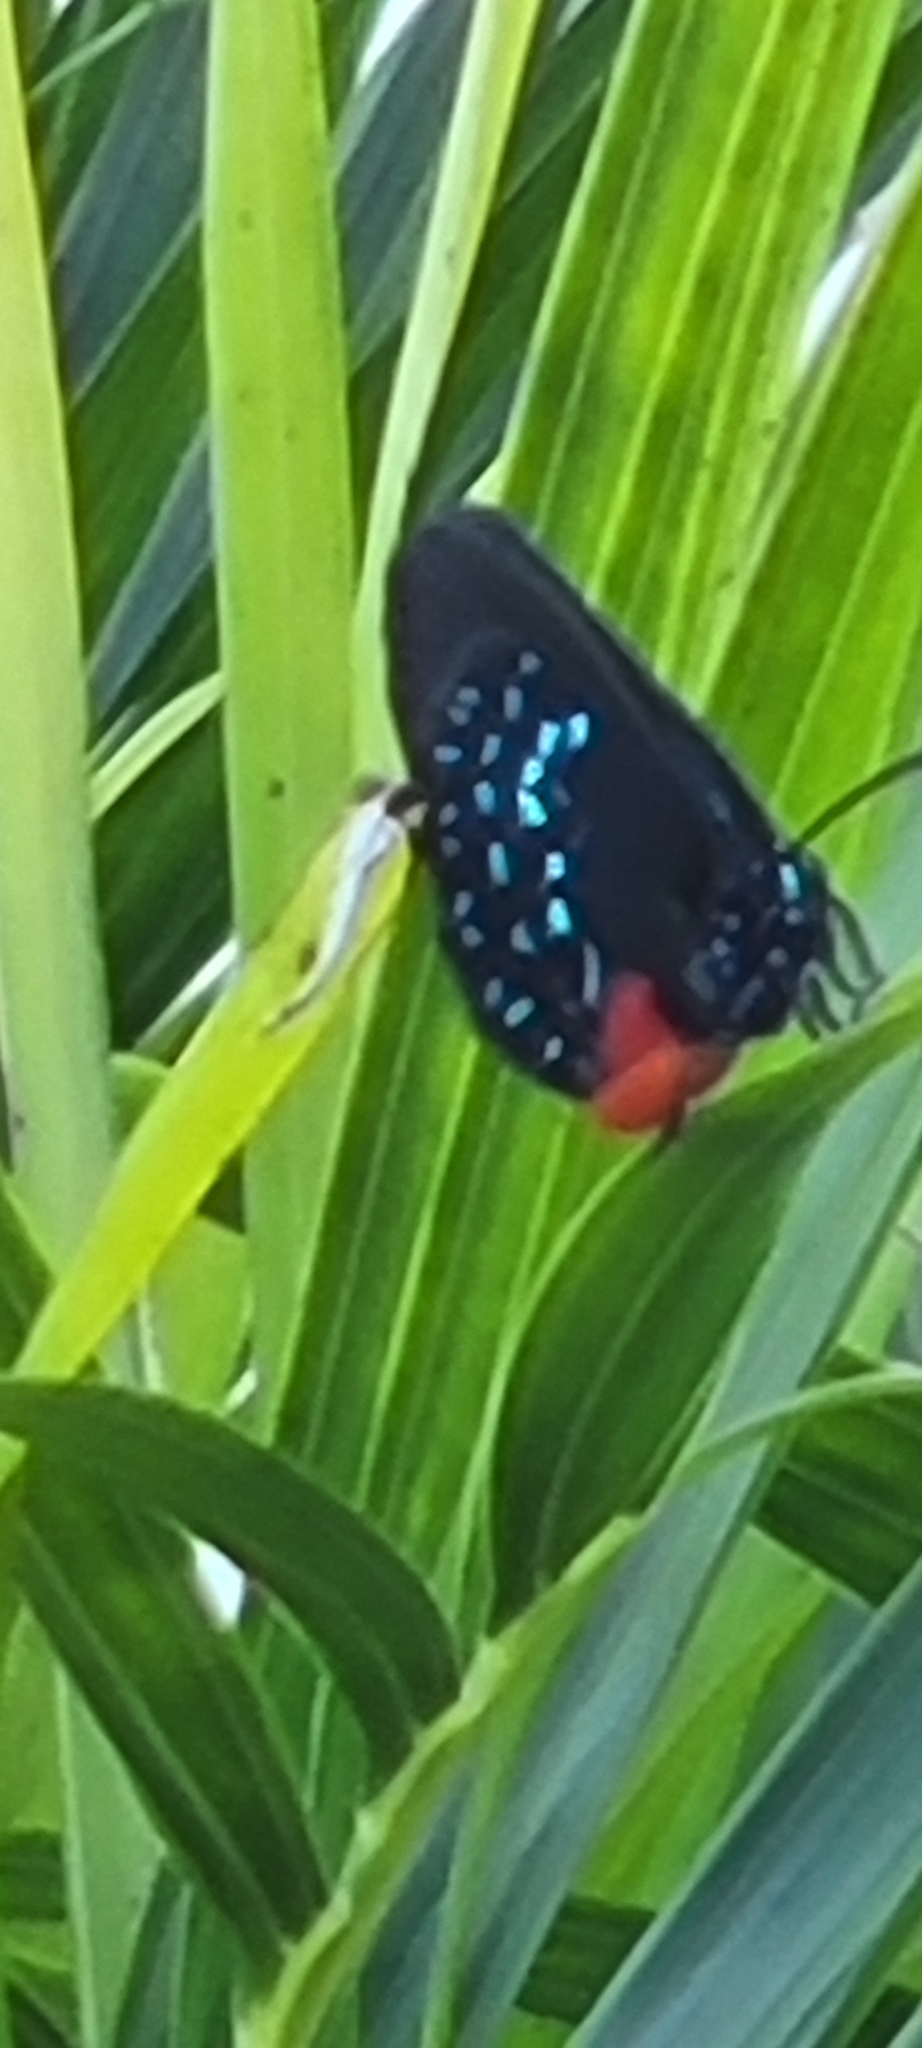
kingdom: Animalia
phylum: Arthropoda
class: Insecta
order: Lepidoptera
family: Lycaenidae
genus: Eumaeus
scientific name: Eumaeus atala
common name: Atala
